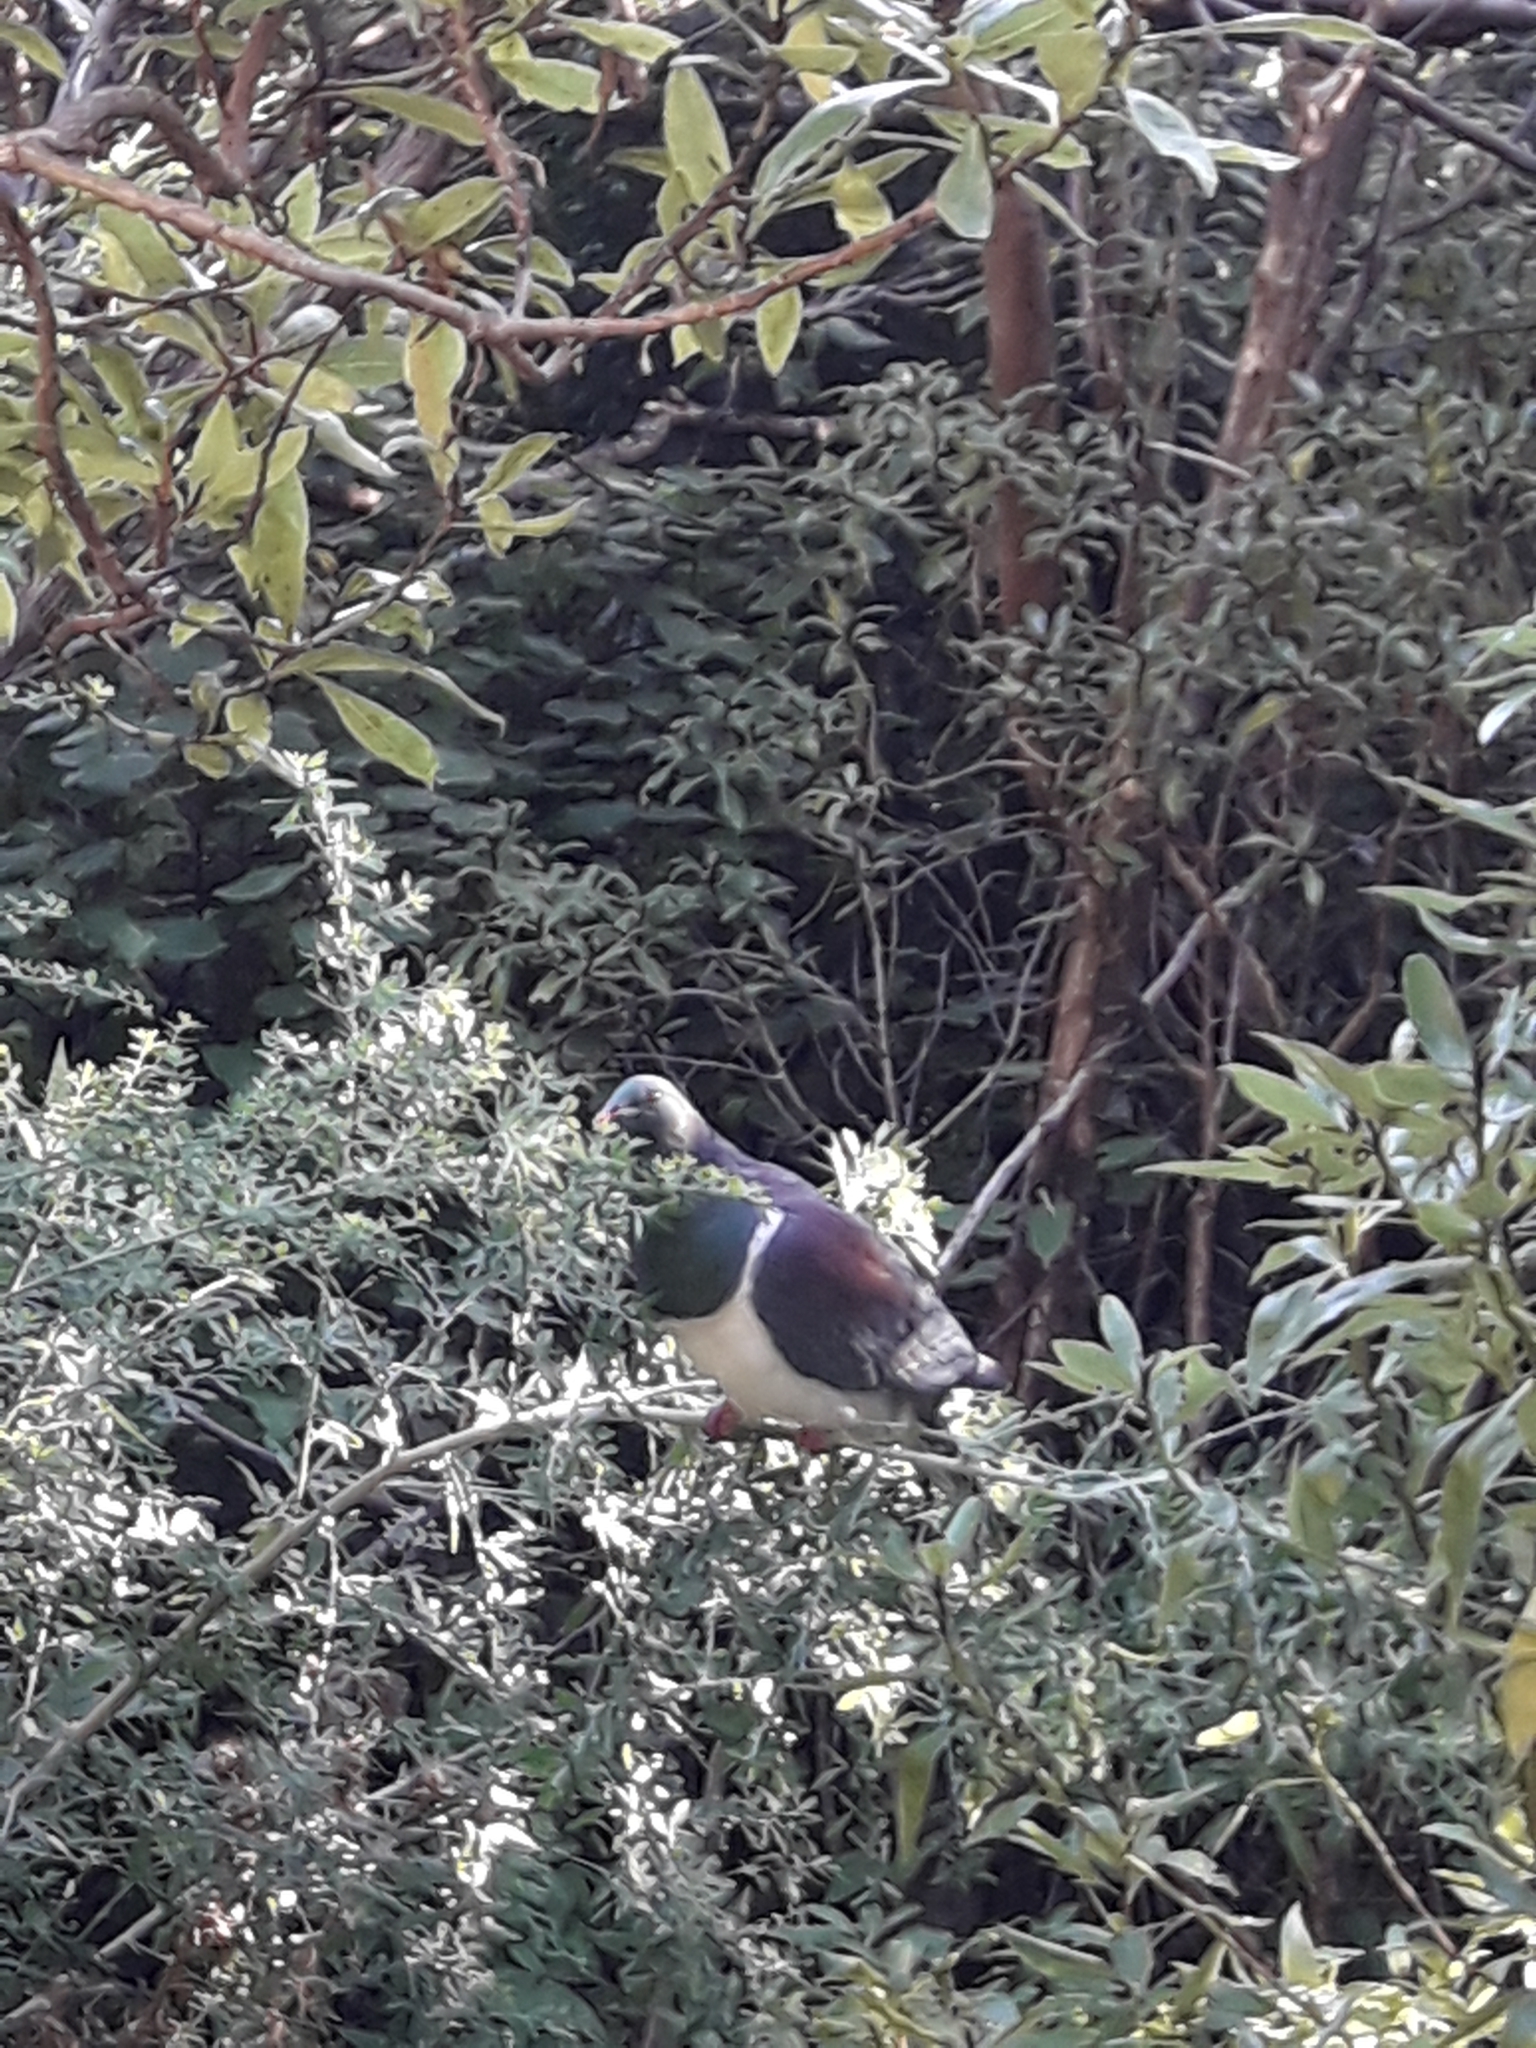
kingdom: Animalia
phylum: Chordata
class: Aves
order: Columbiformes
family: Columbidae
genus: Hemiphaga
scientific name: Hemiphaga novaeseelandiae
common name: New zealand pigeon
